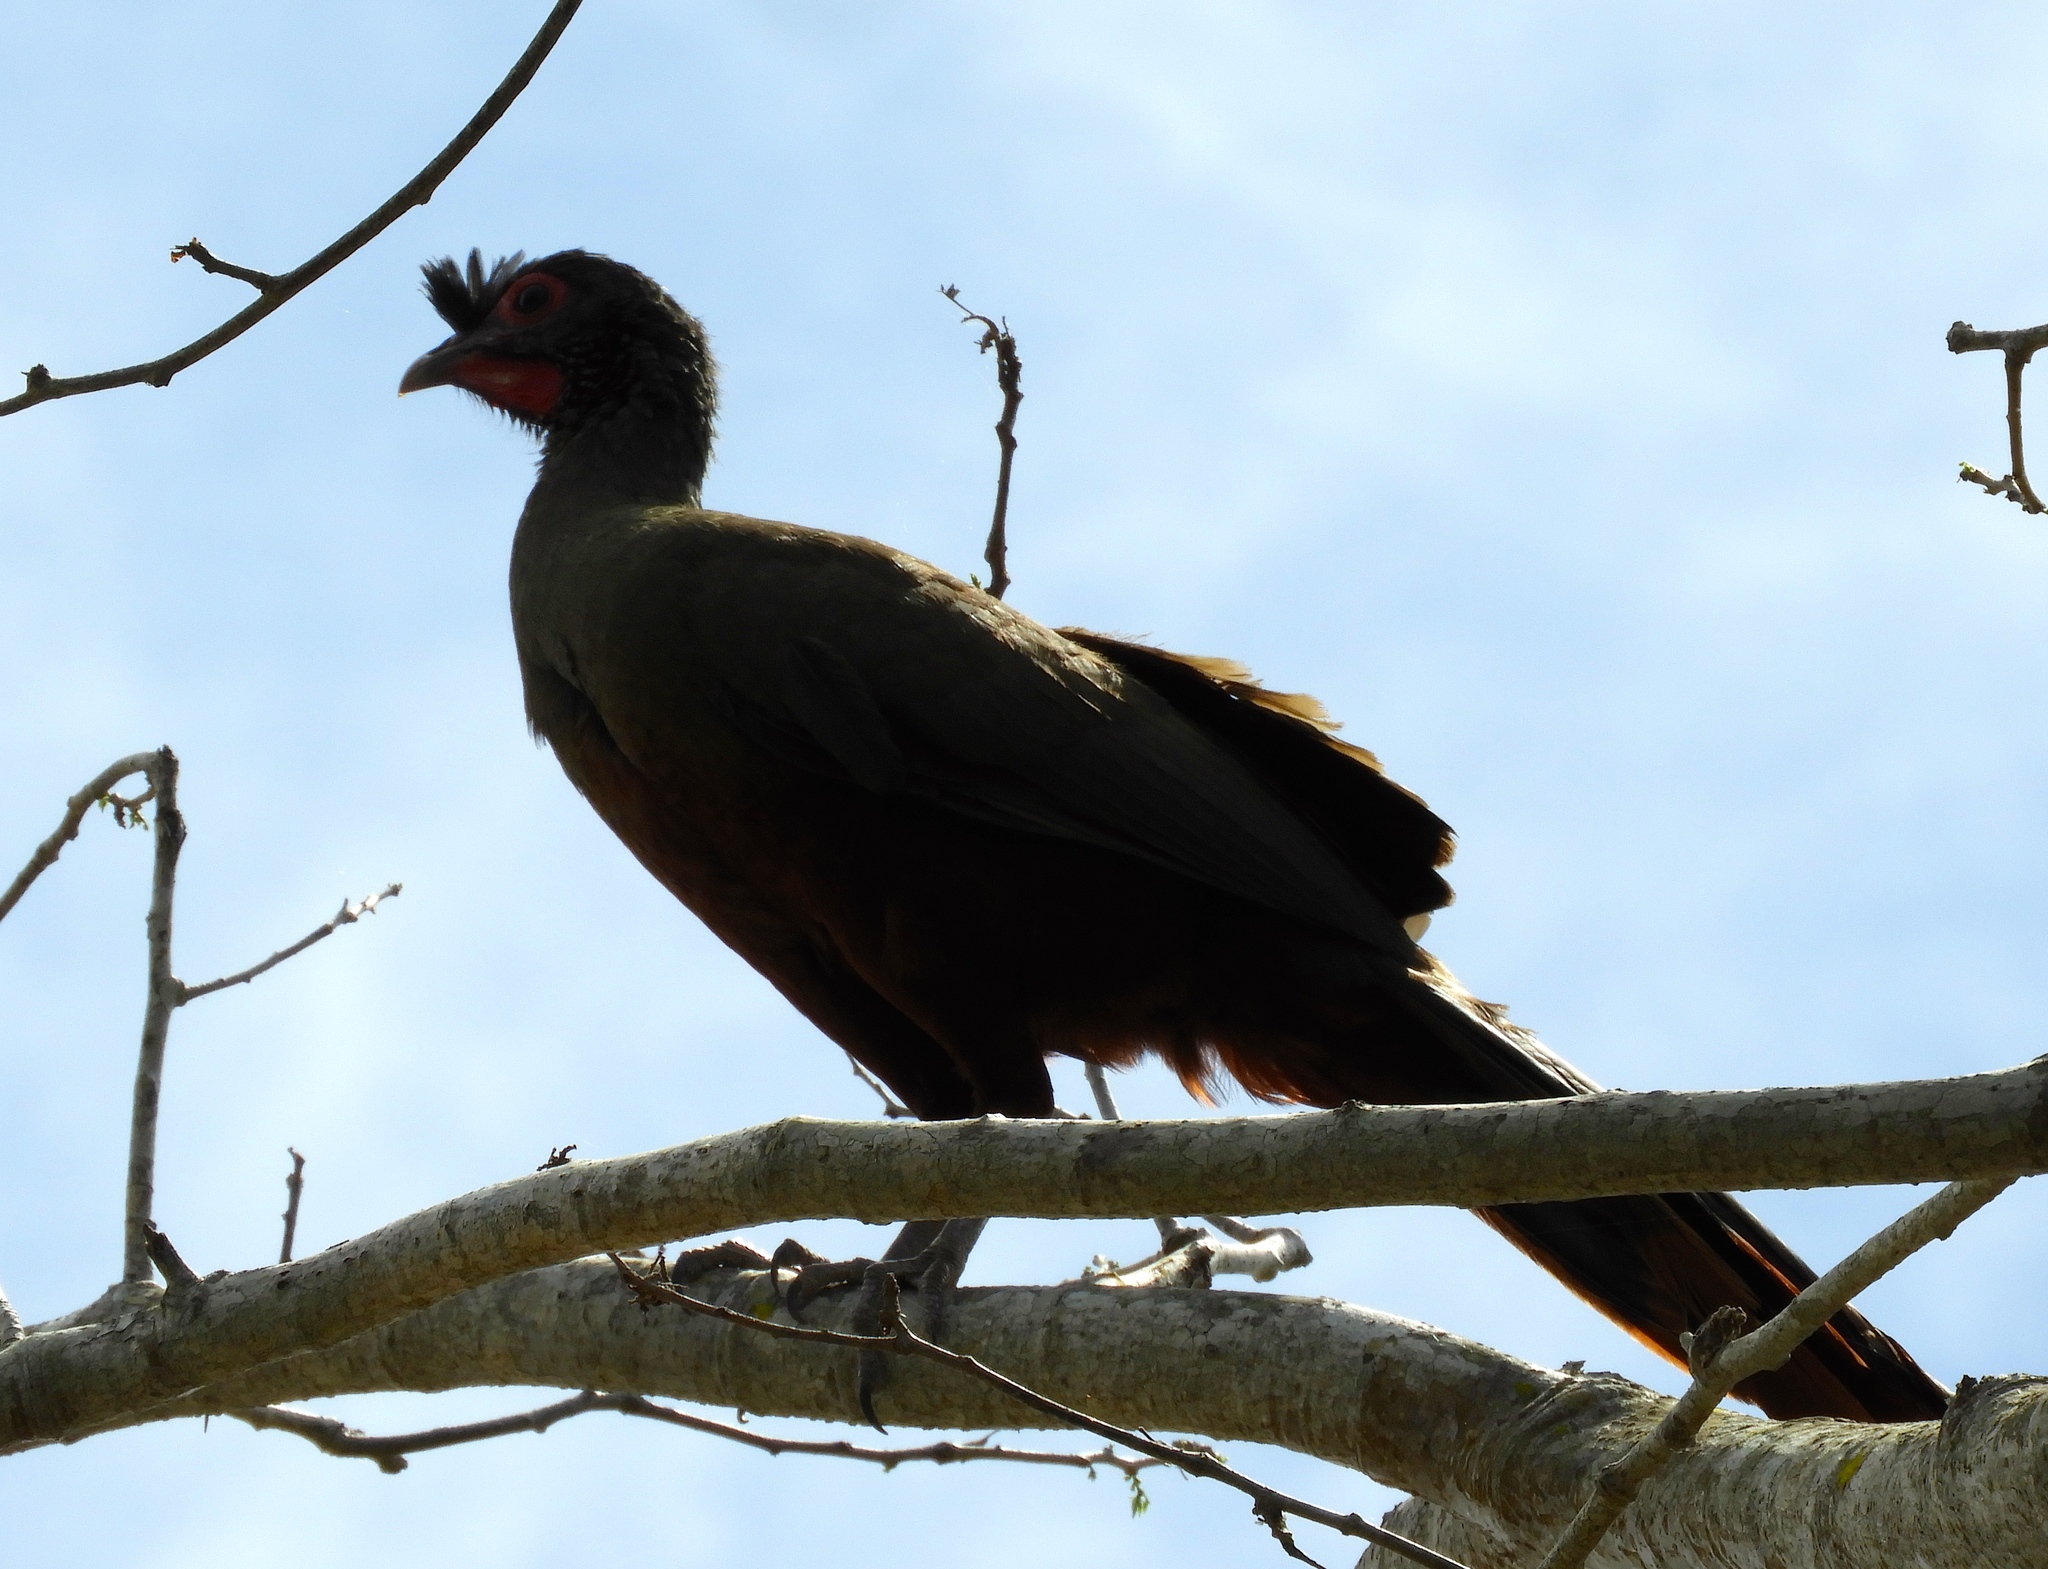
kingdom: Animalia
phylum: Chordata
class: Aves
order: Galliformes
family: Cracidae
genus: Ortalis
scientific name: Ortalis wagleri
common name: Rufous-bellied chachalaca
